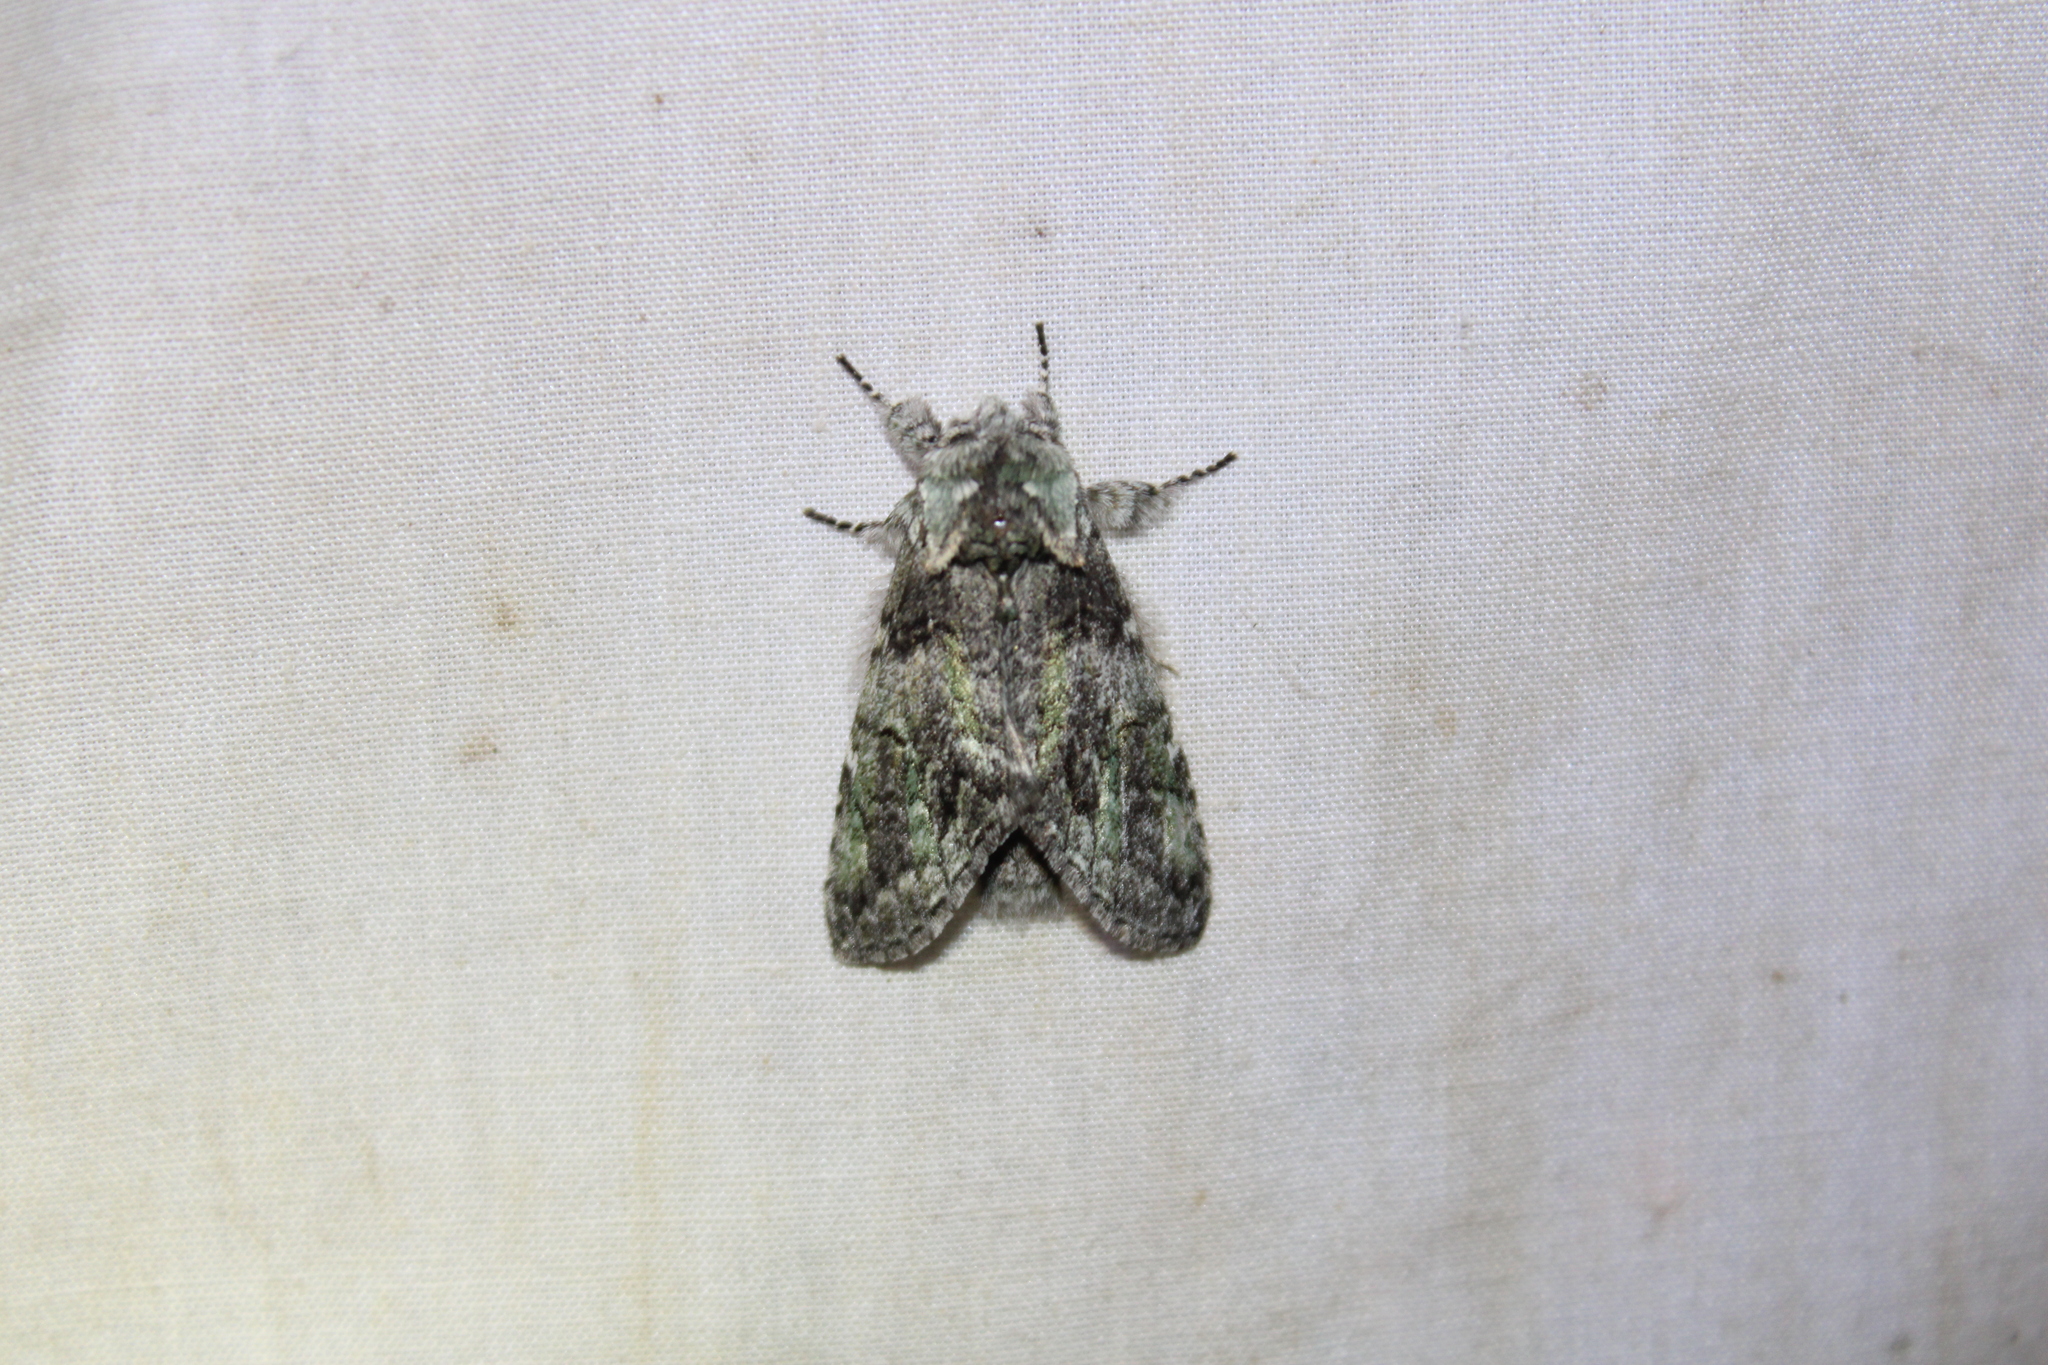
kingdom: Animalia
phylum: Arthropoda
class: Insecta
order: Lepidoptera
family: Notodontidae
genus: Macrurocampa
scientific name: Macrurocampa marthesia
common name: Mottled prominent
